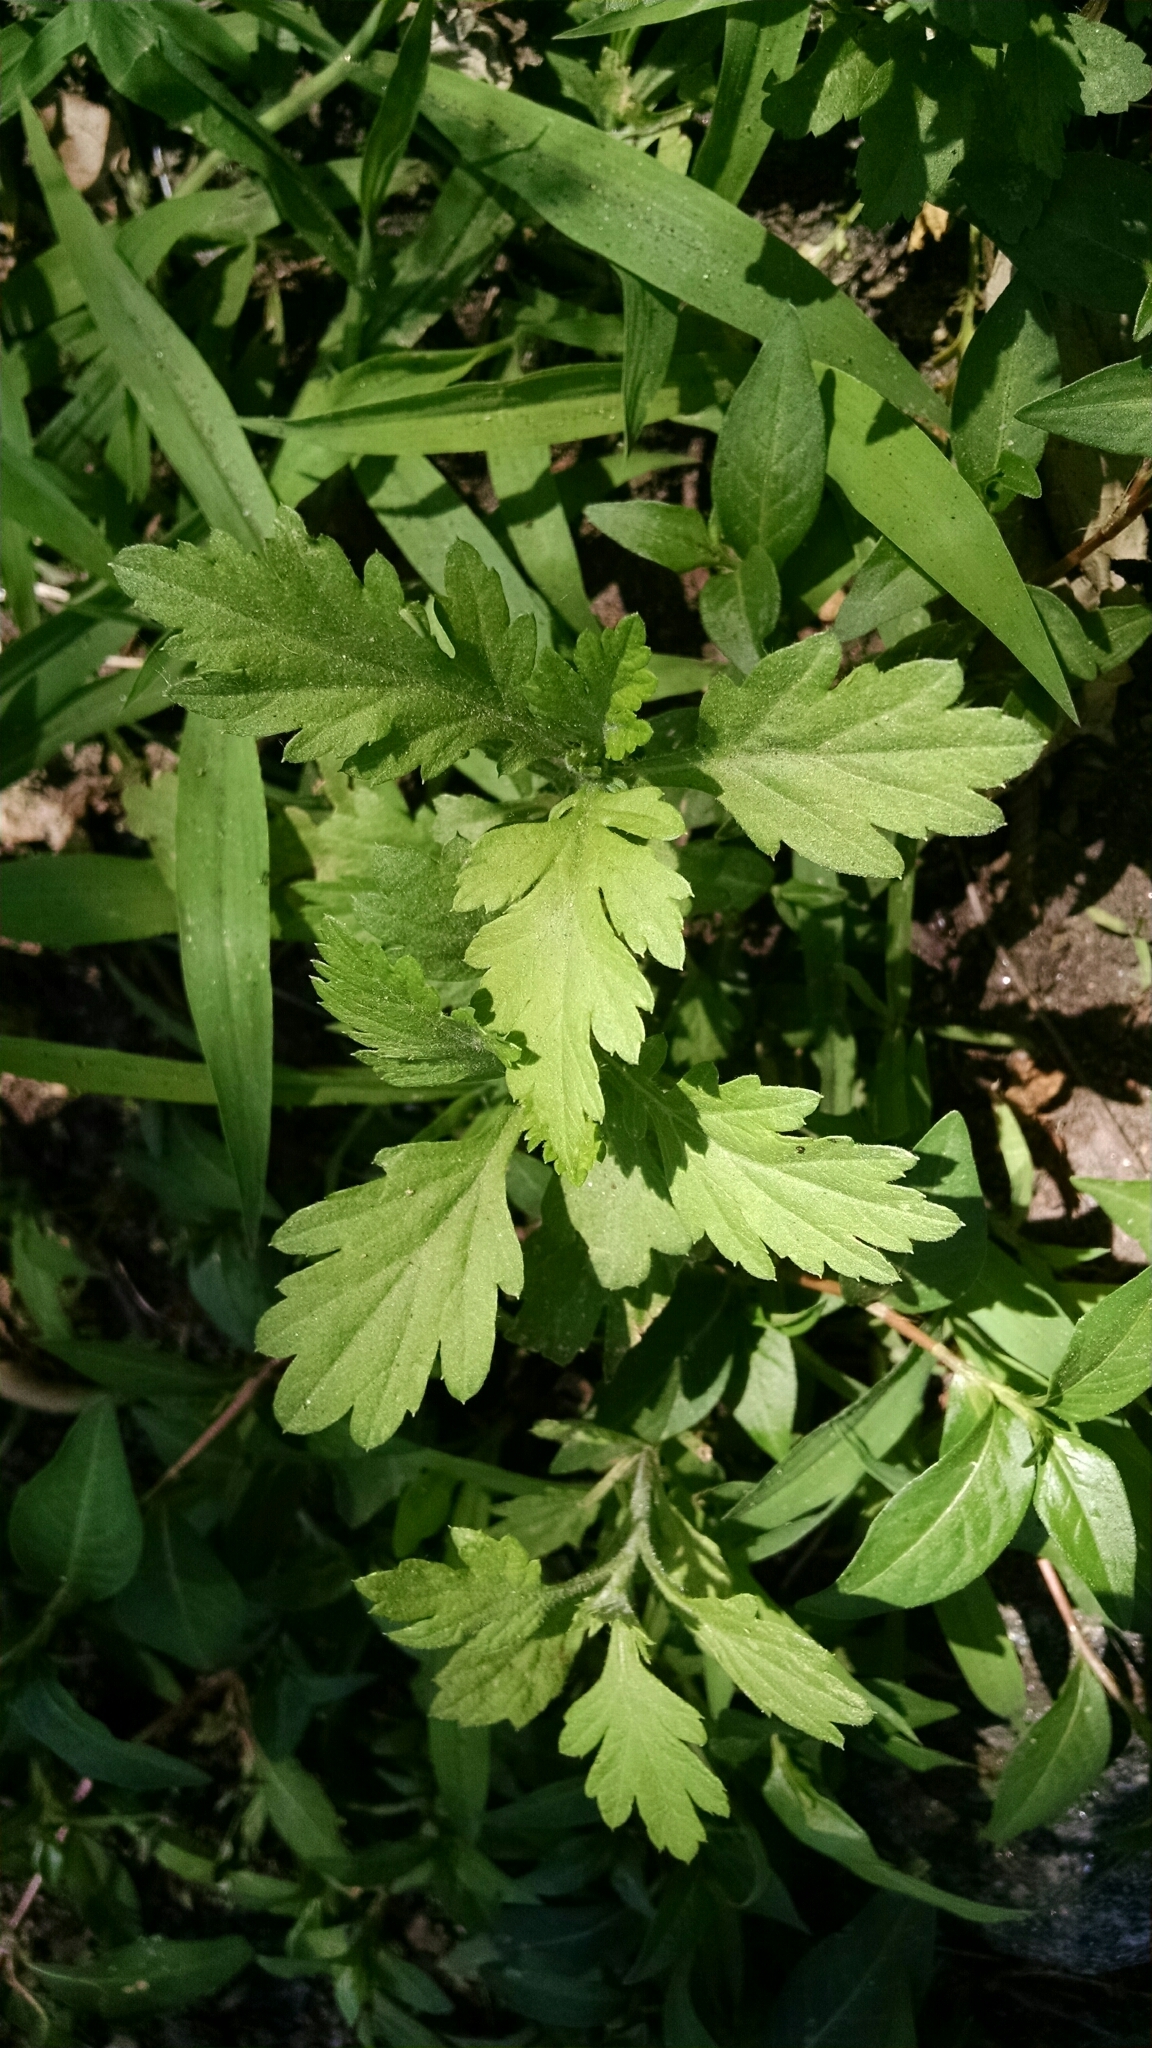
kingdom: Plantae
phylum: Tracheophyta
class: Magnoliopsida
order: Asterales
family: Asteraceae
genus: Artemisia
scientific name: Artemisia vulgaris
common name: Mugwort
